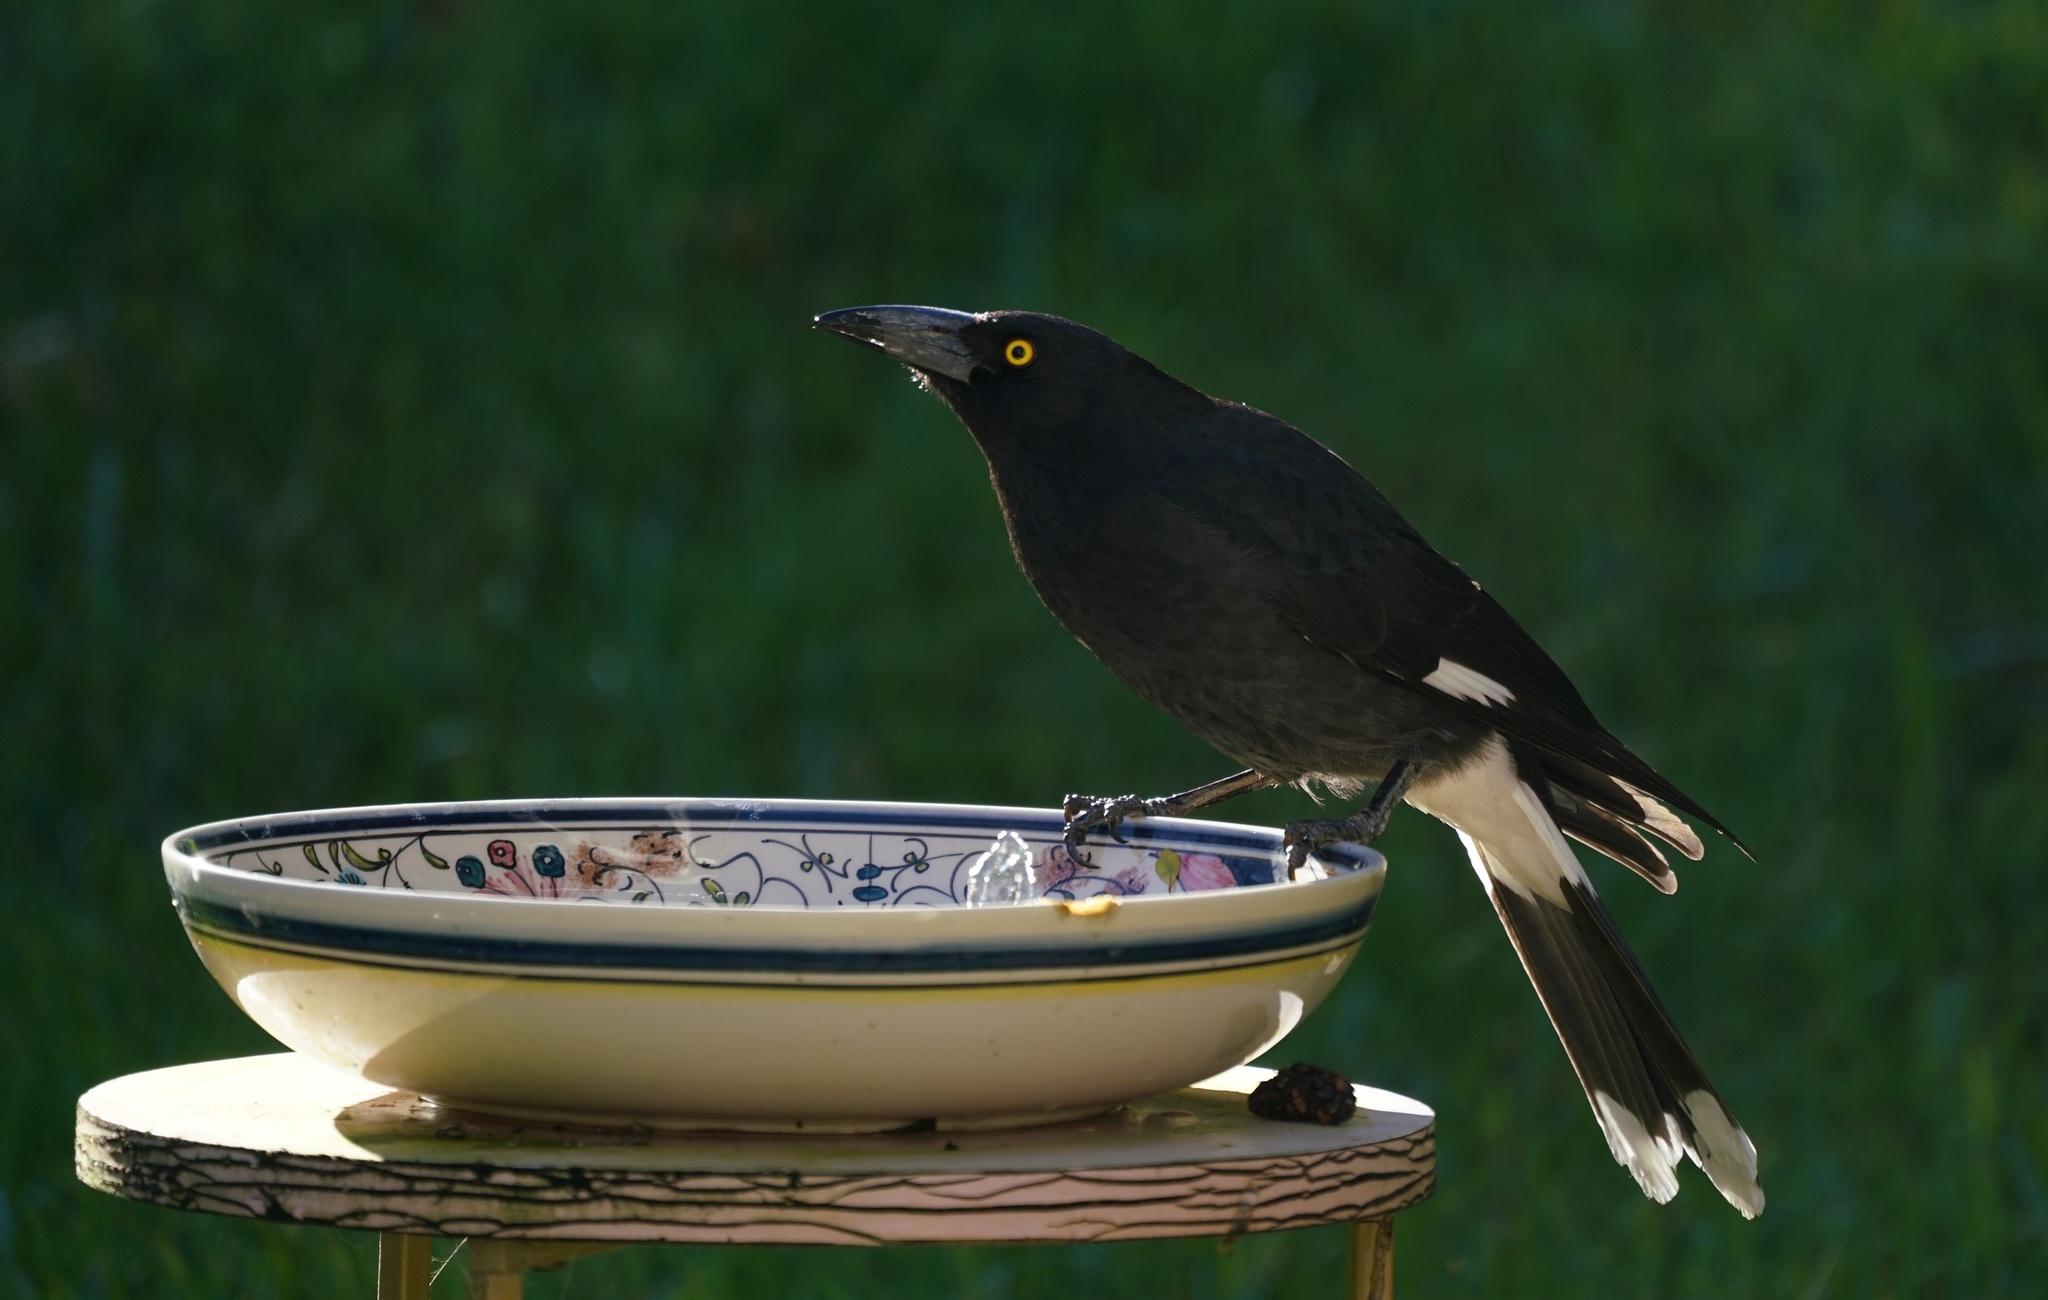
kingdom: Animalia
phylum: Chordata
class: Aves
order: Passeriformes
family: Cracticidae
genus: Strepera
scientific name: Strepera graculina
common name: Pied currawong
